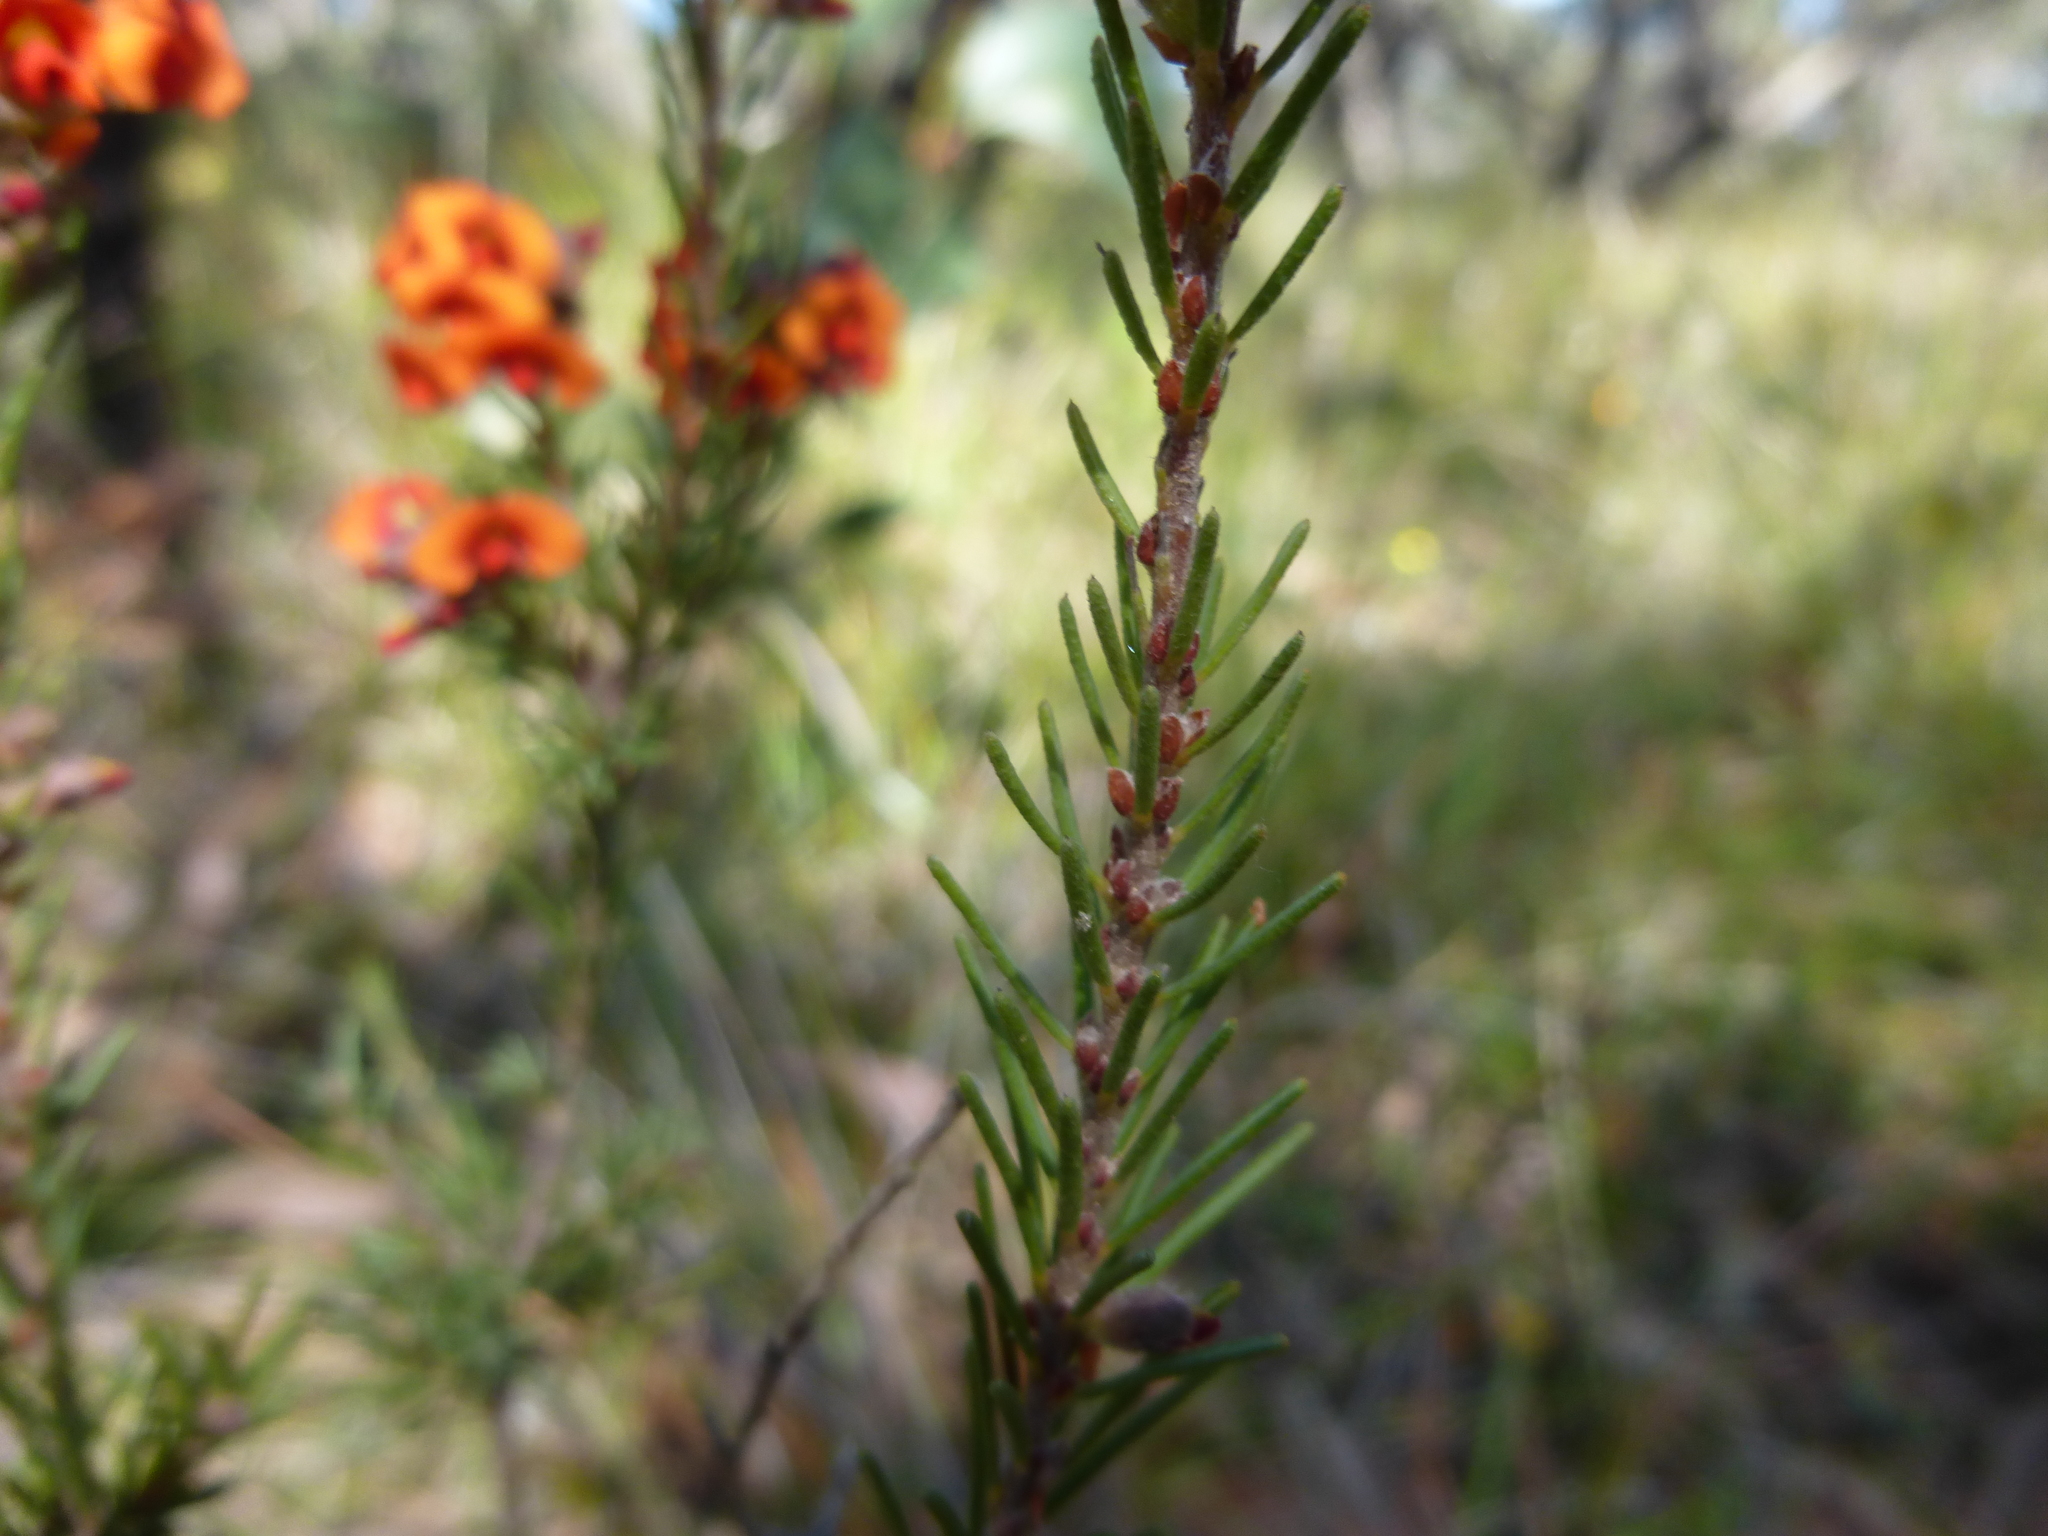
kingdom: Plantae
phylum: Tracheophyta
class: Magnoliopsida
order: Fabales
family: Fabaceae
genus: Dillwynia
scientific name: Dillwynia sericea
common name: Showy parrot-pea
